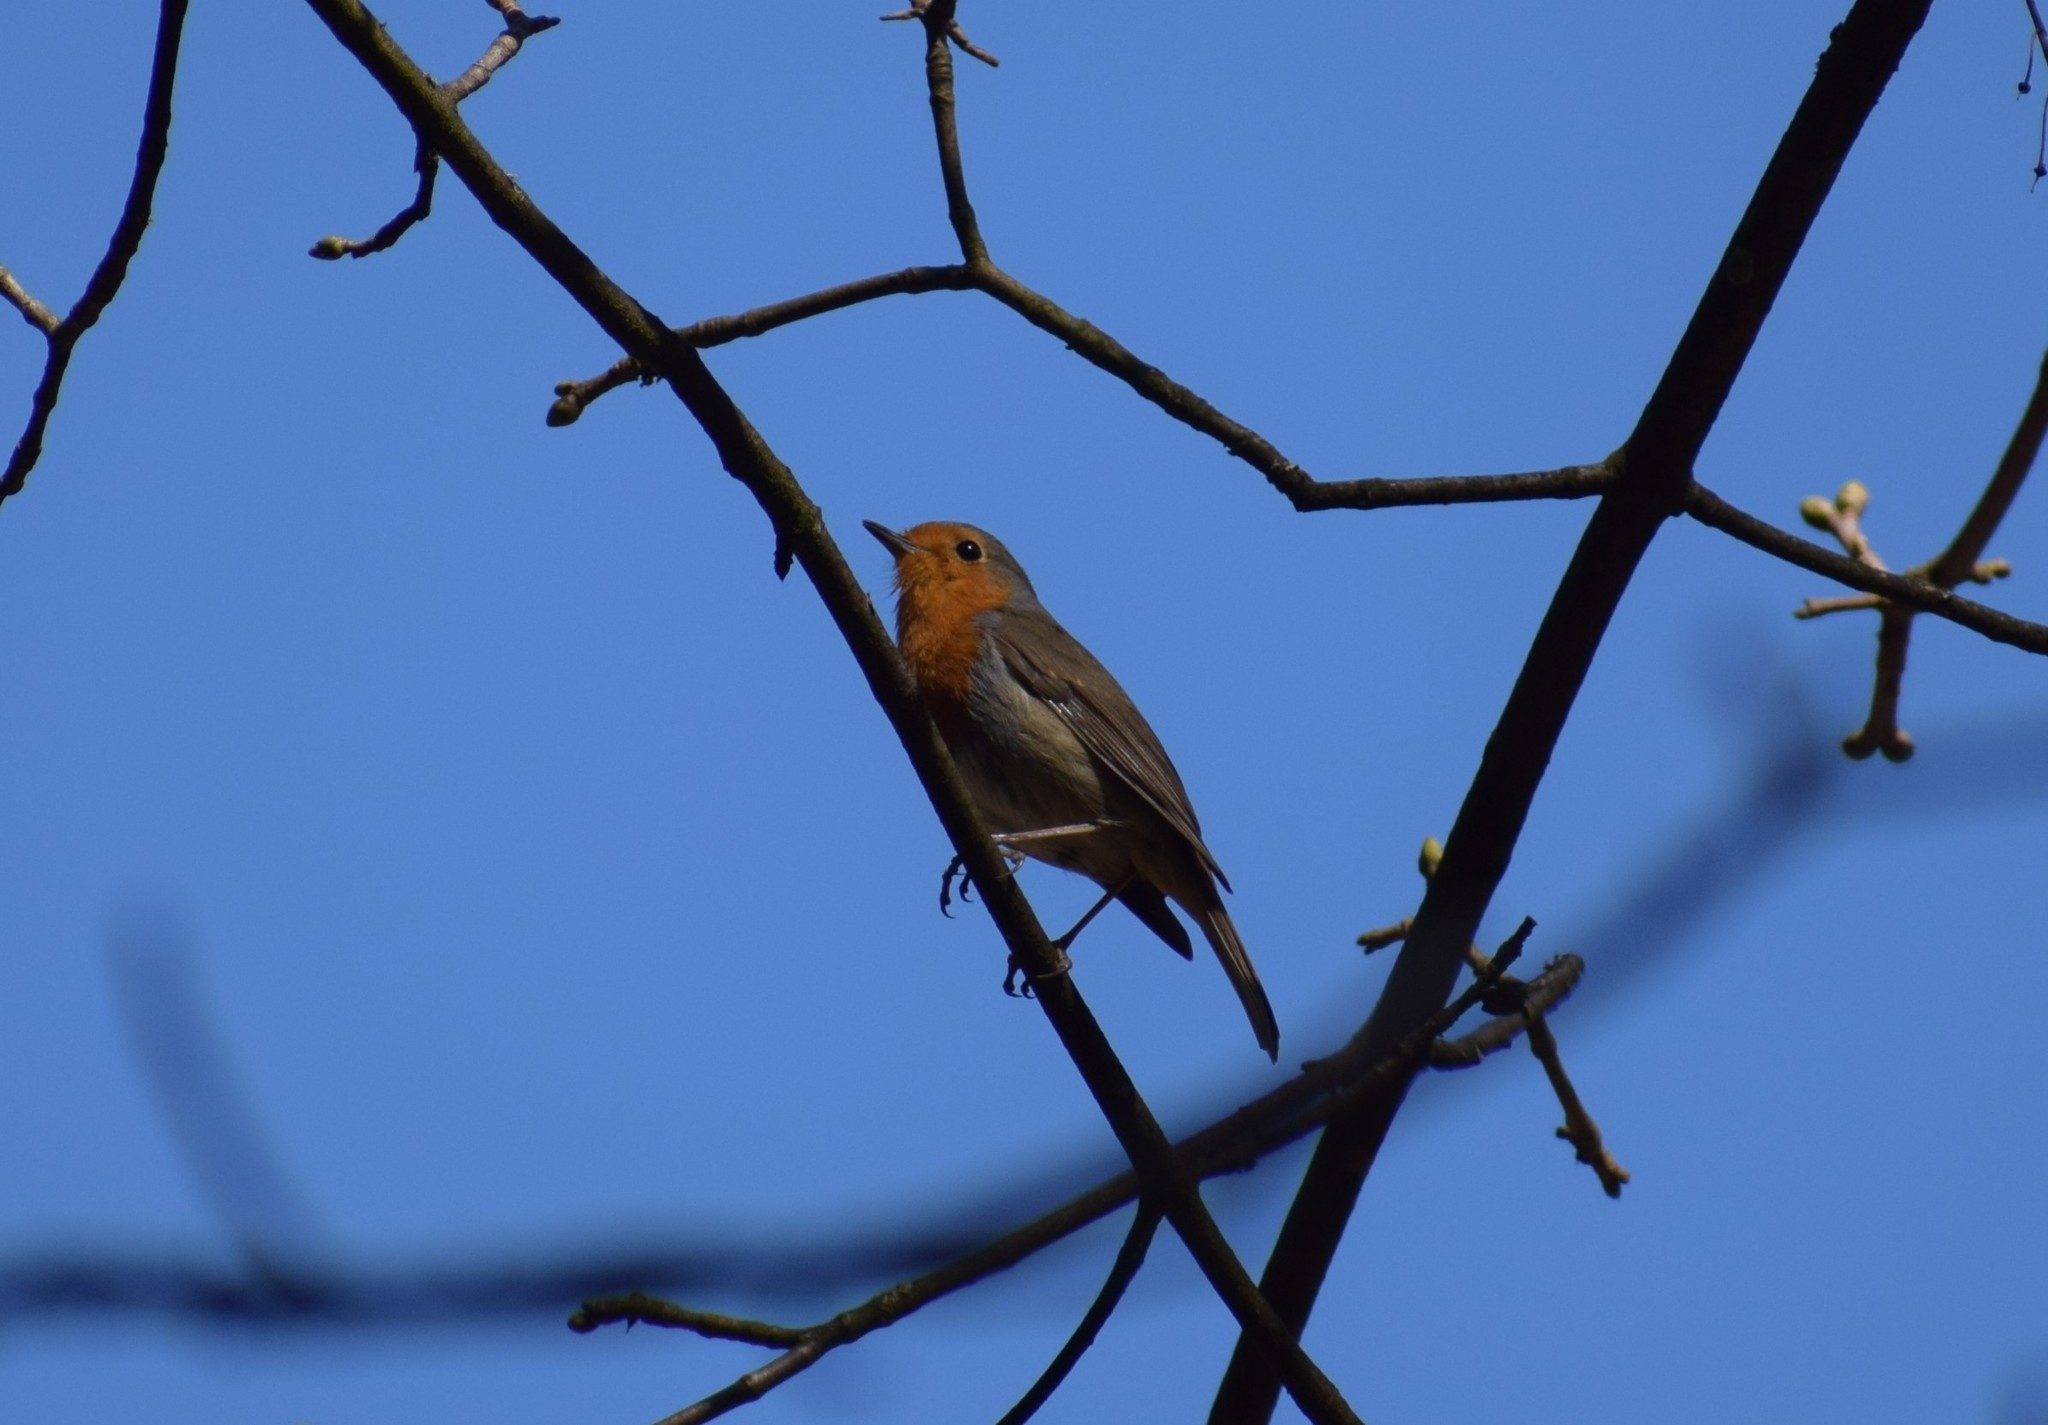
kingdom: Animalia
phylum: Chordata
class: Aves
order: Passeriformes
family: Muscicapidae
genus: Erithacus
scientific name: Erithacus rubecula
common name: European robin
